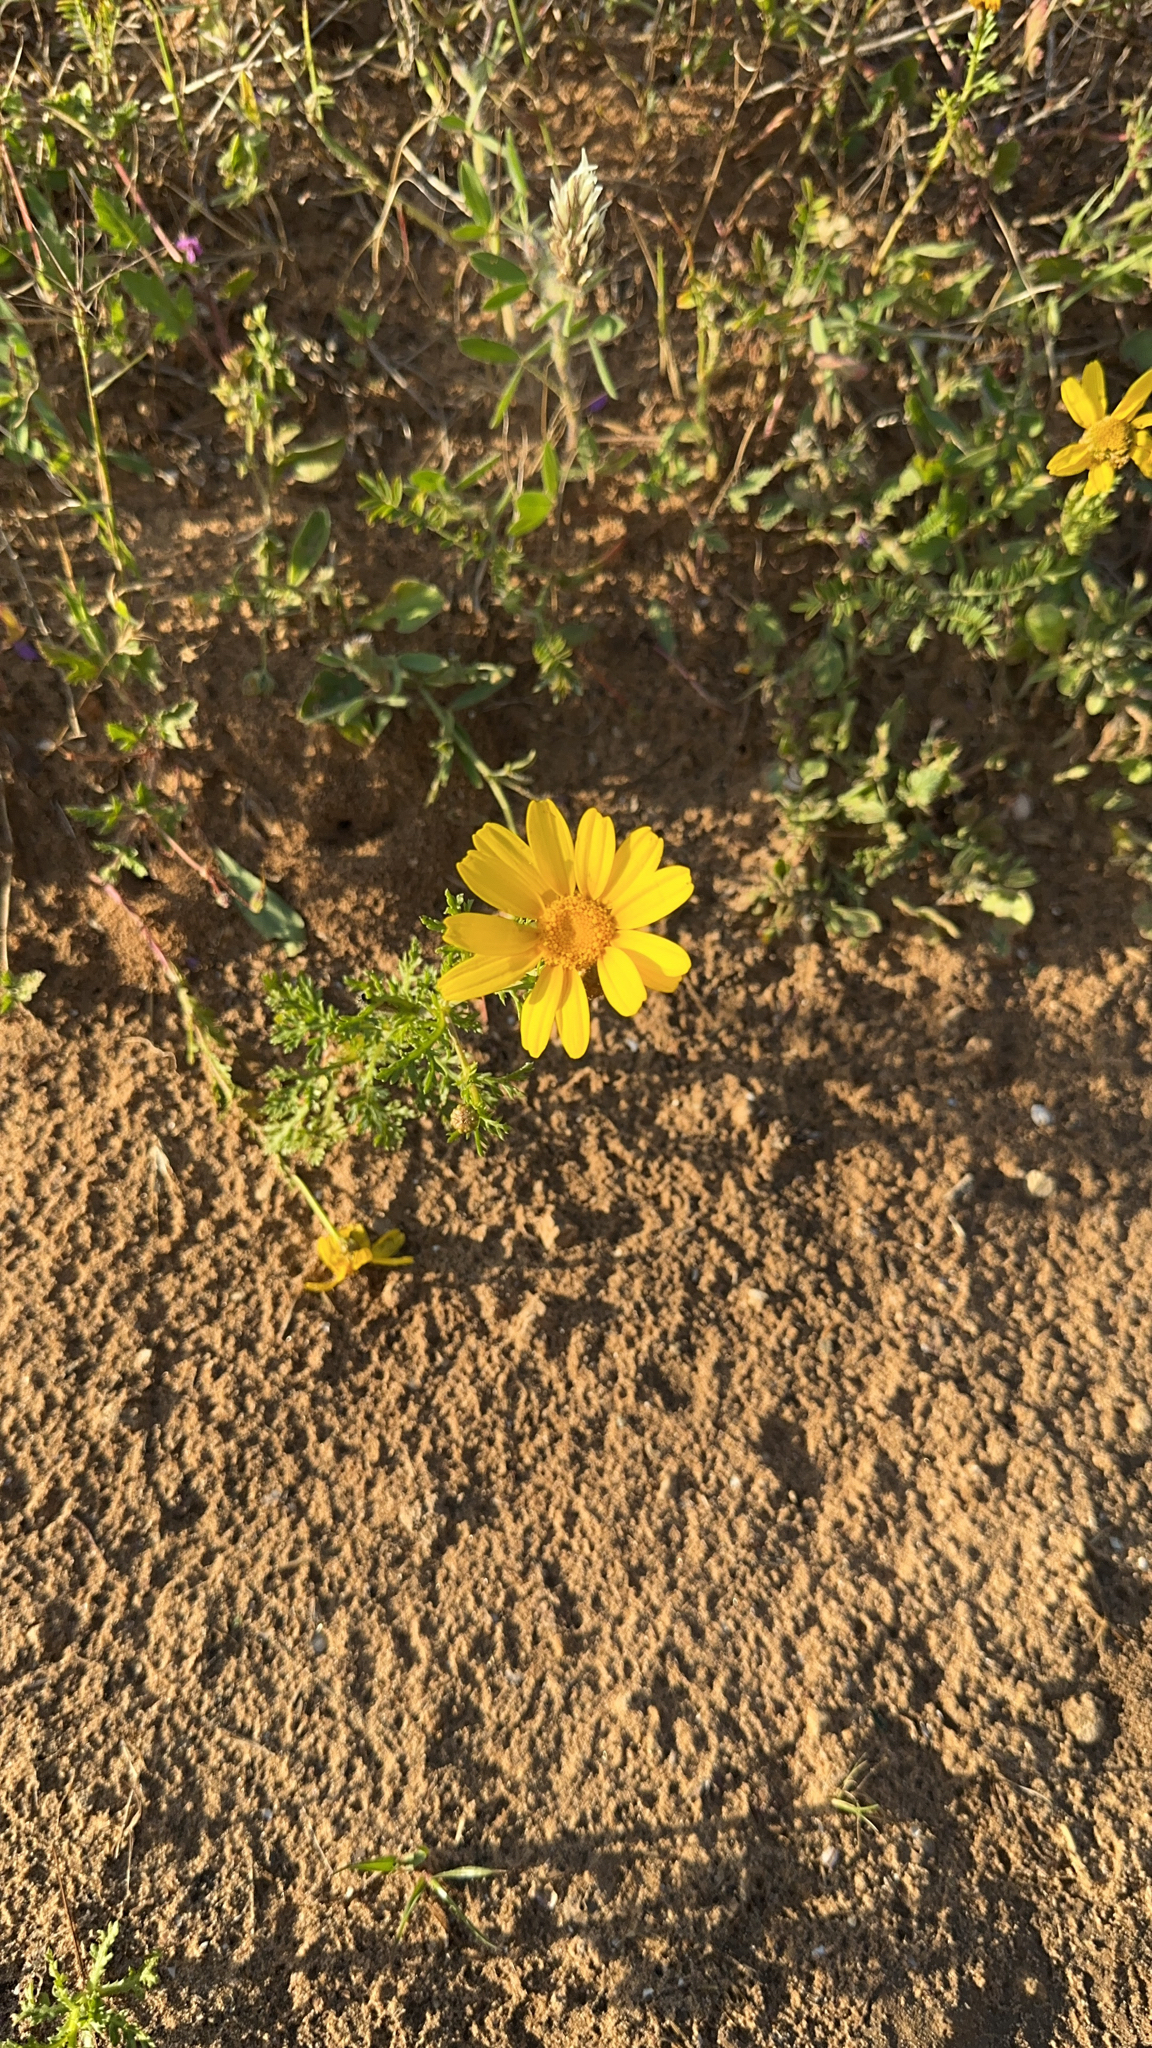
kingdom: Plantae
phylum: Tracheophyta
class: Magnoliopsida
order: Asterales
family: Asteraceae
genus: Glebionis
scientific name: Glebionis coronaria
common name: Crowndaisy
